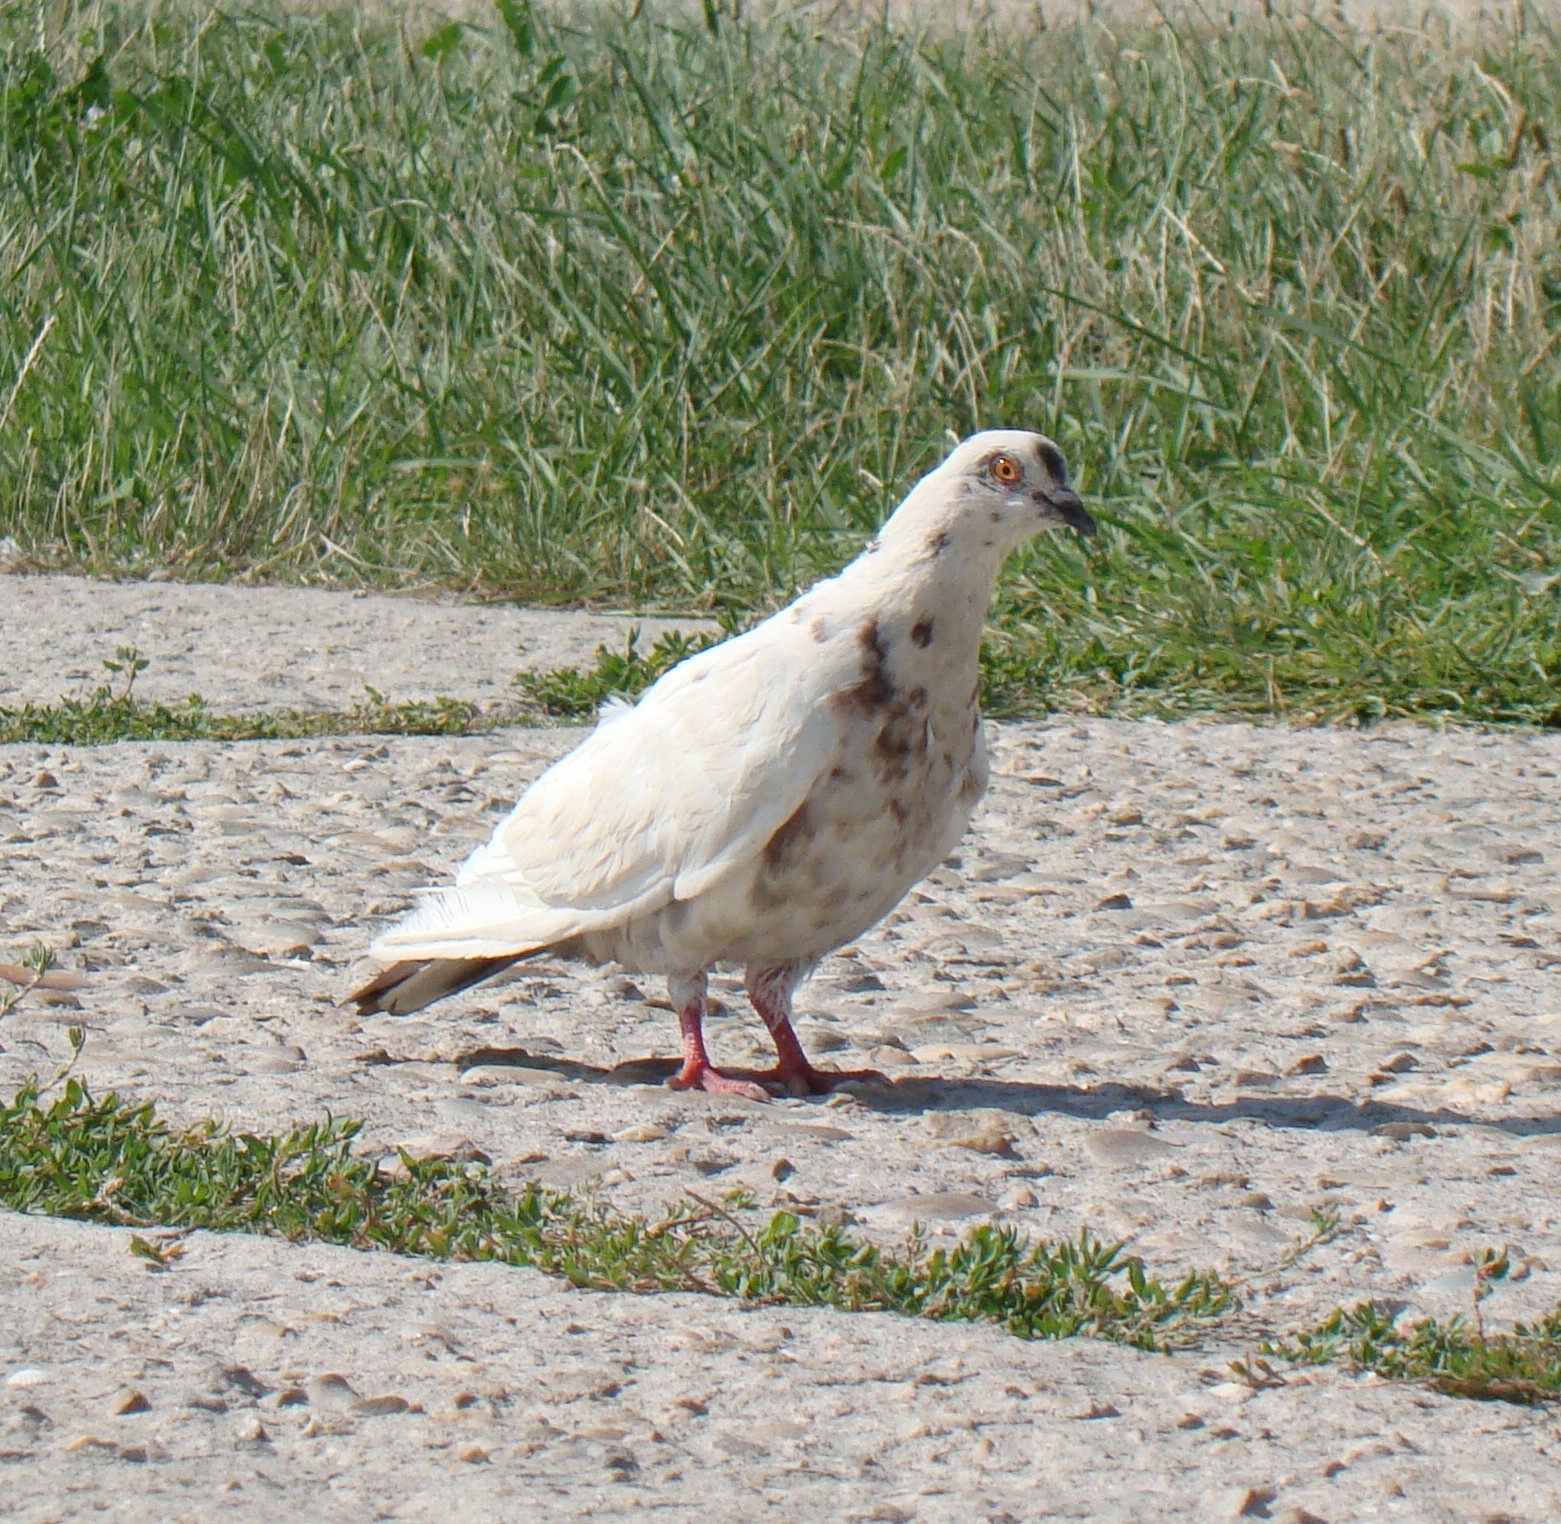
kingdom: Animalia
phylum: Chordata
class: Aves
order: Columbiformes
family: Columbidae
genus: Columba
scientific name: Columba livia
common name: Rock pigeon
